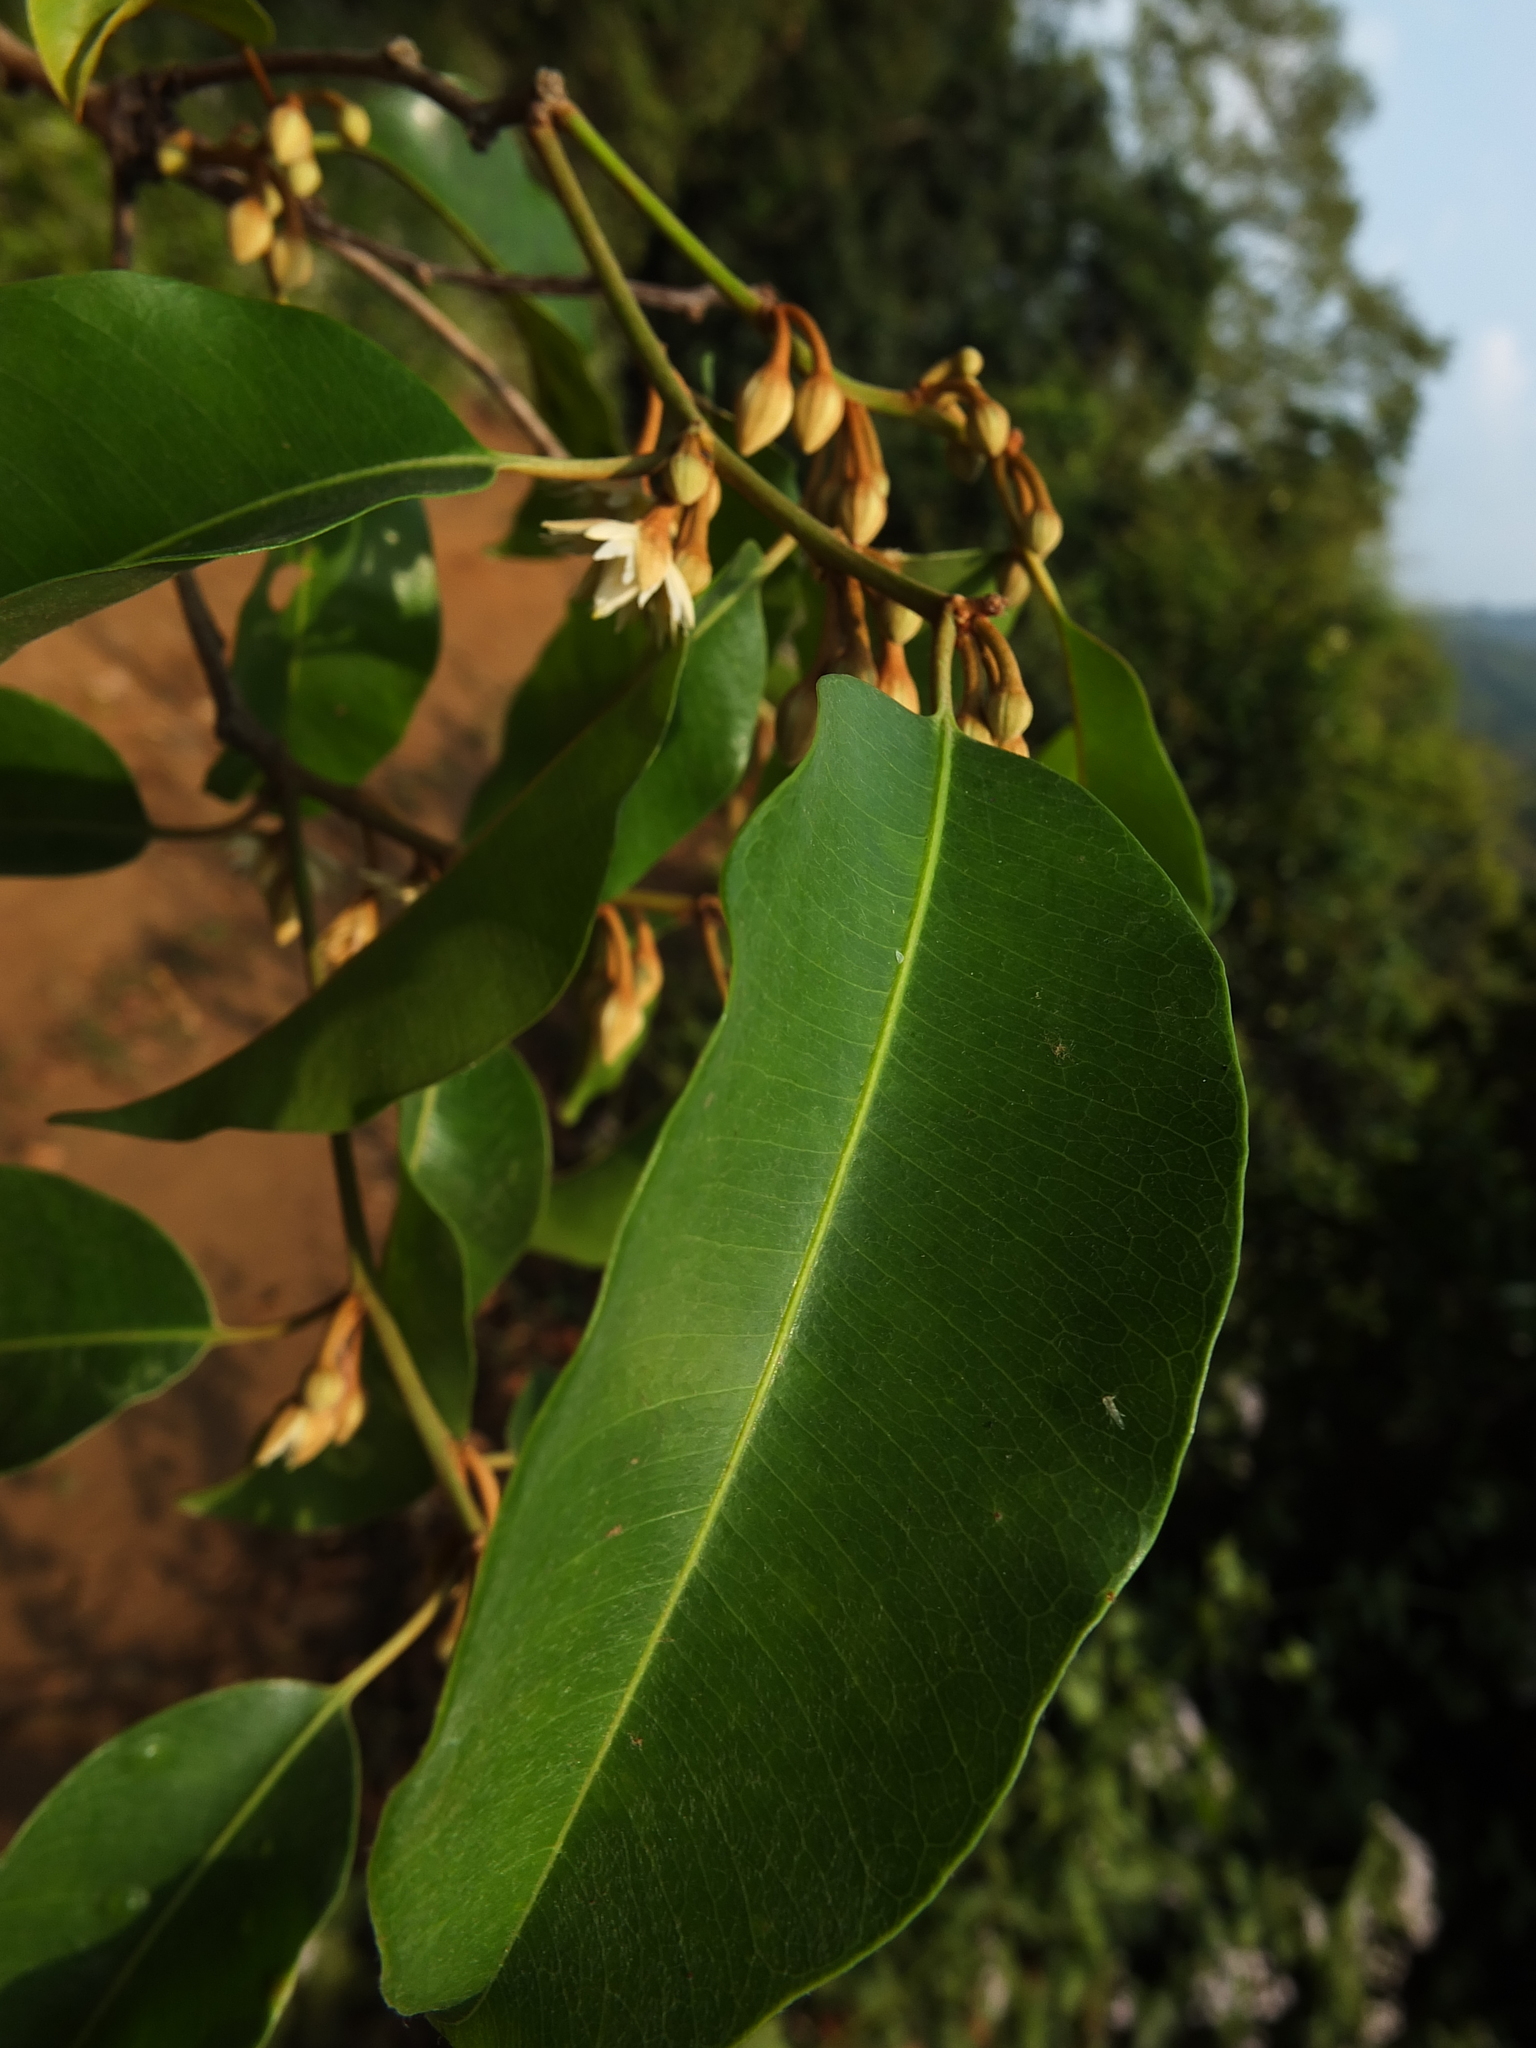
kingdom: Plantae
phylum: Tracheophyta
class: Magnoliopsida
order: Ericales
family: Sapotaceae
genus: Mimusops
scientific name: Mimusops elengi
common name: Spanish cherry
